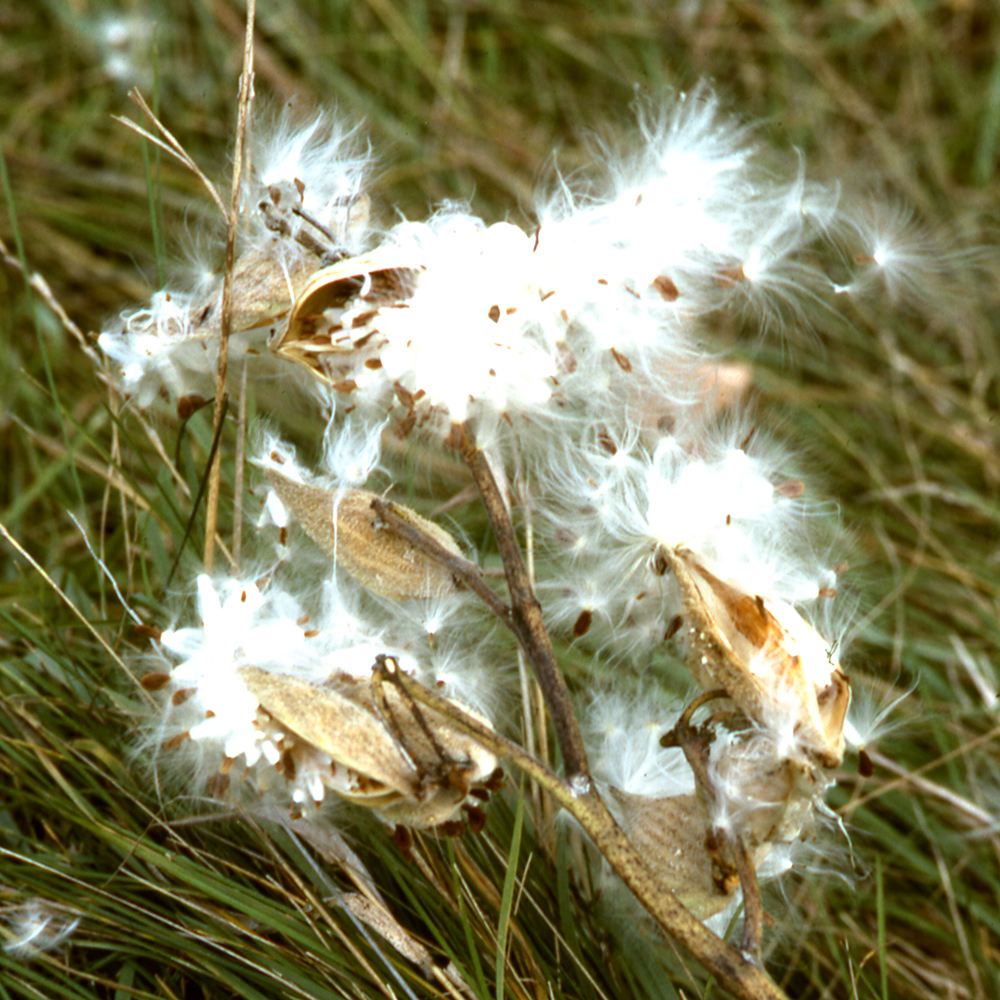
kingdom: Plantae
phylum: Tracheophyta
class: Magnoliopsida
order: Gentianales
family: Apocynaceae
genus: Asclepias
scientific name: Asclepias syriaca
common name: Common milkweed
